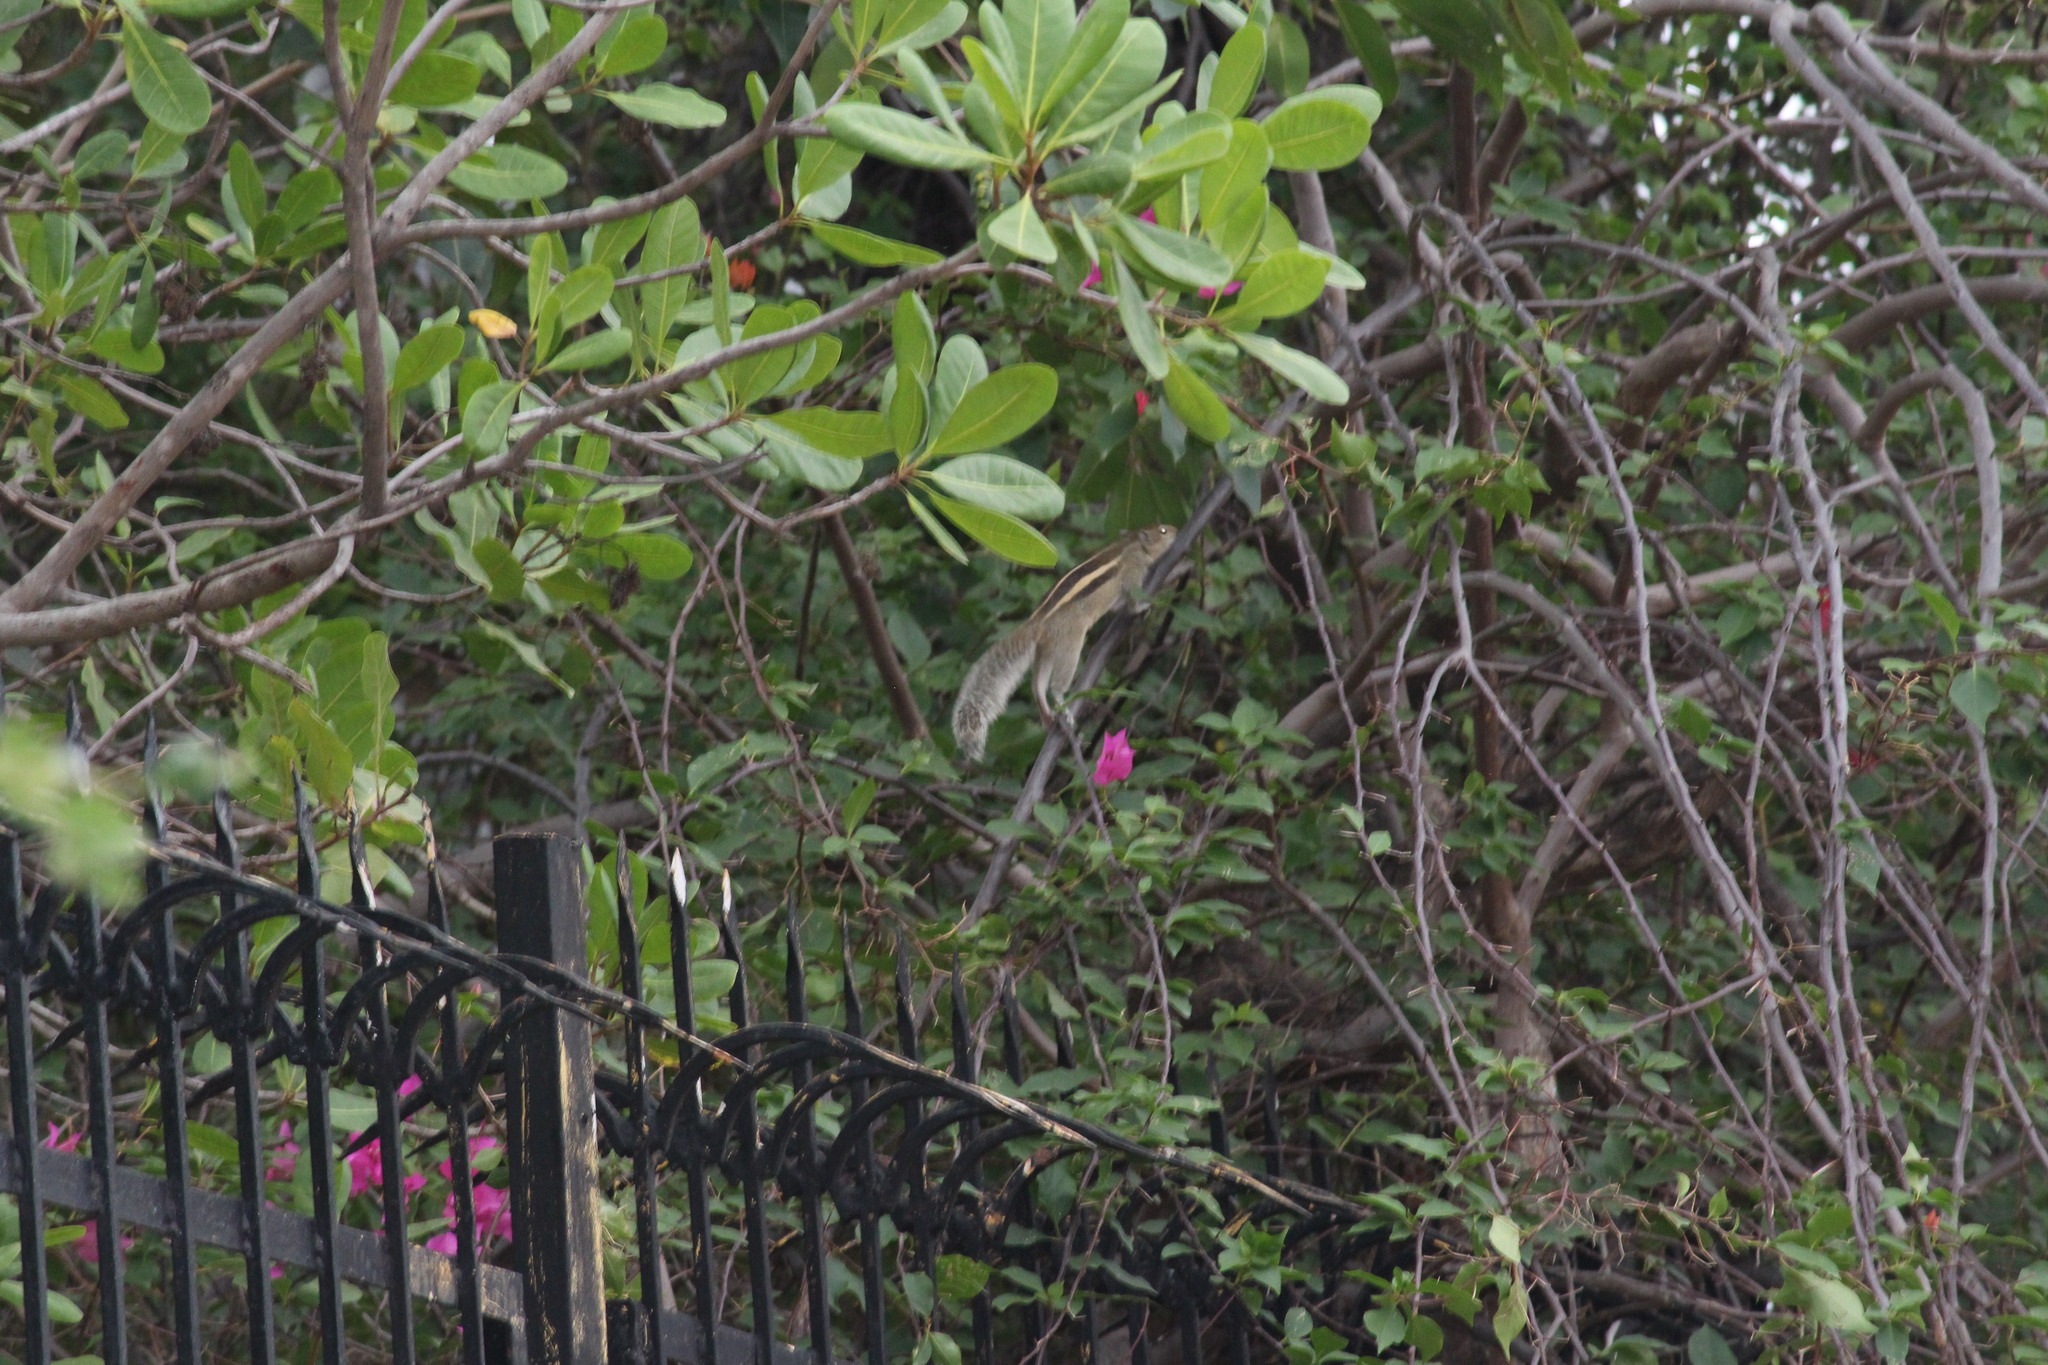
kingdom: Animalia
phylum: Chordata
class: Mammalia
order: Rodentia
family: Sciuridae
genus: Funambulus
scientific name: Funambulus palmarum
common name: Indian palm squirrel
